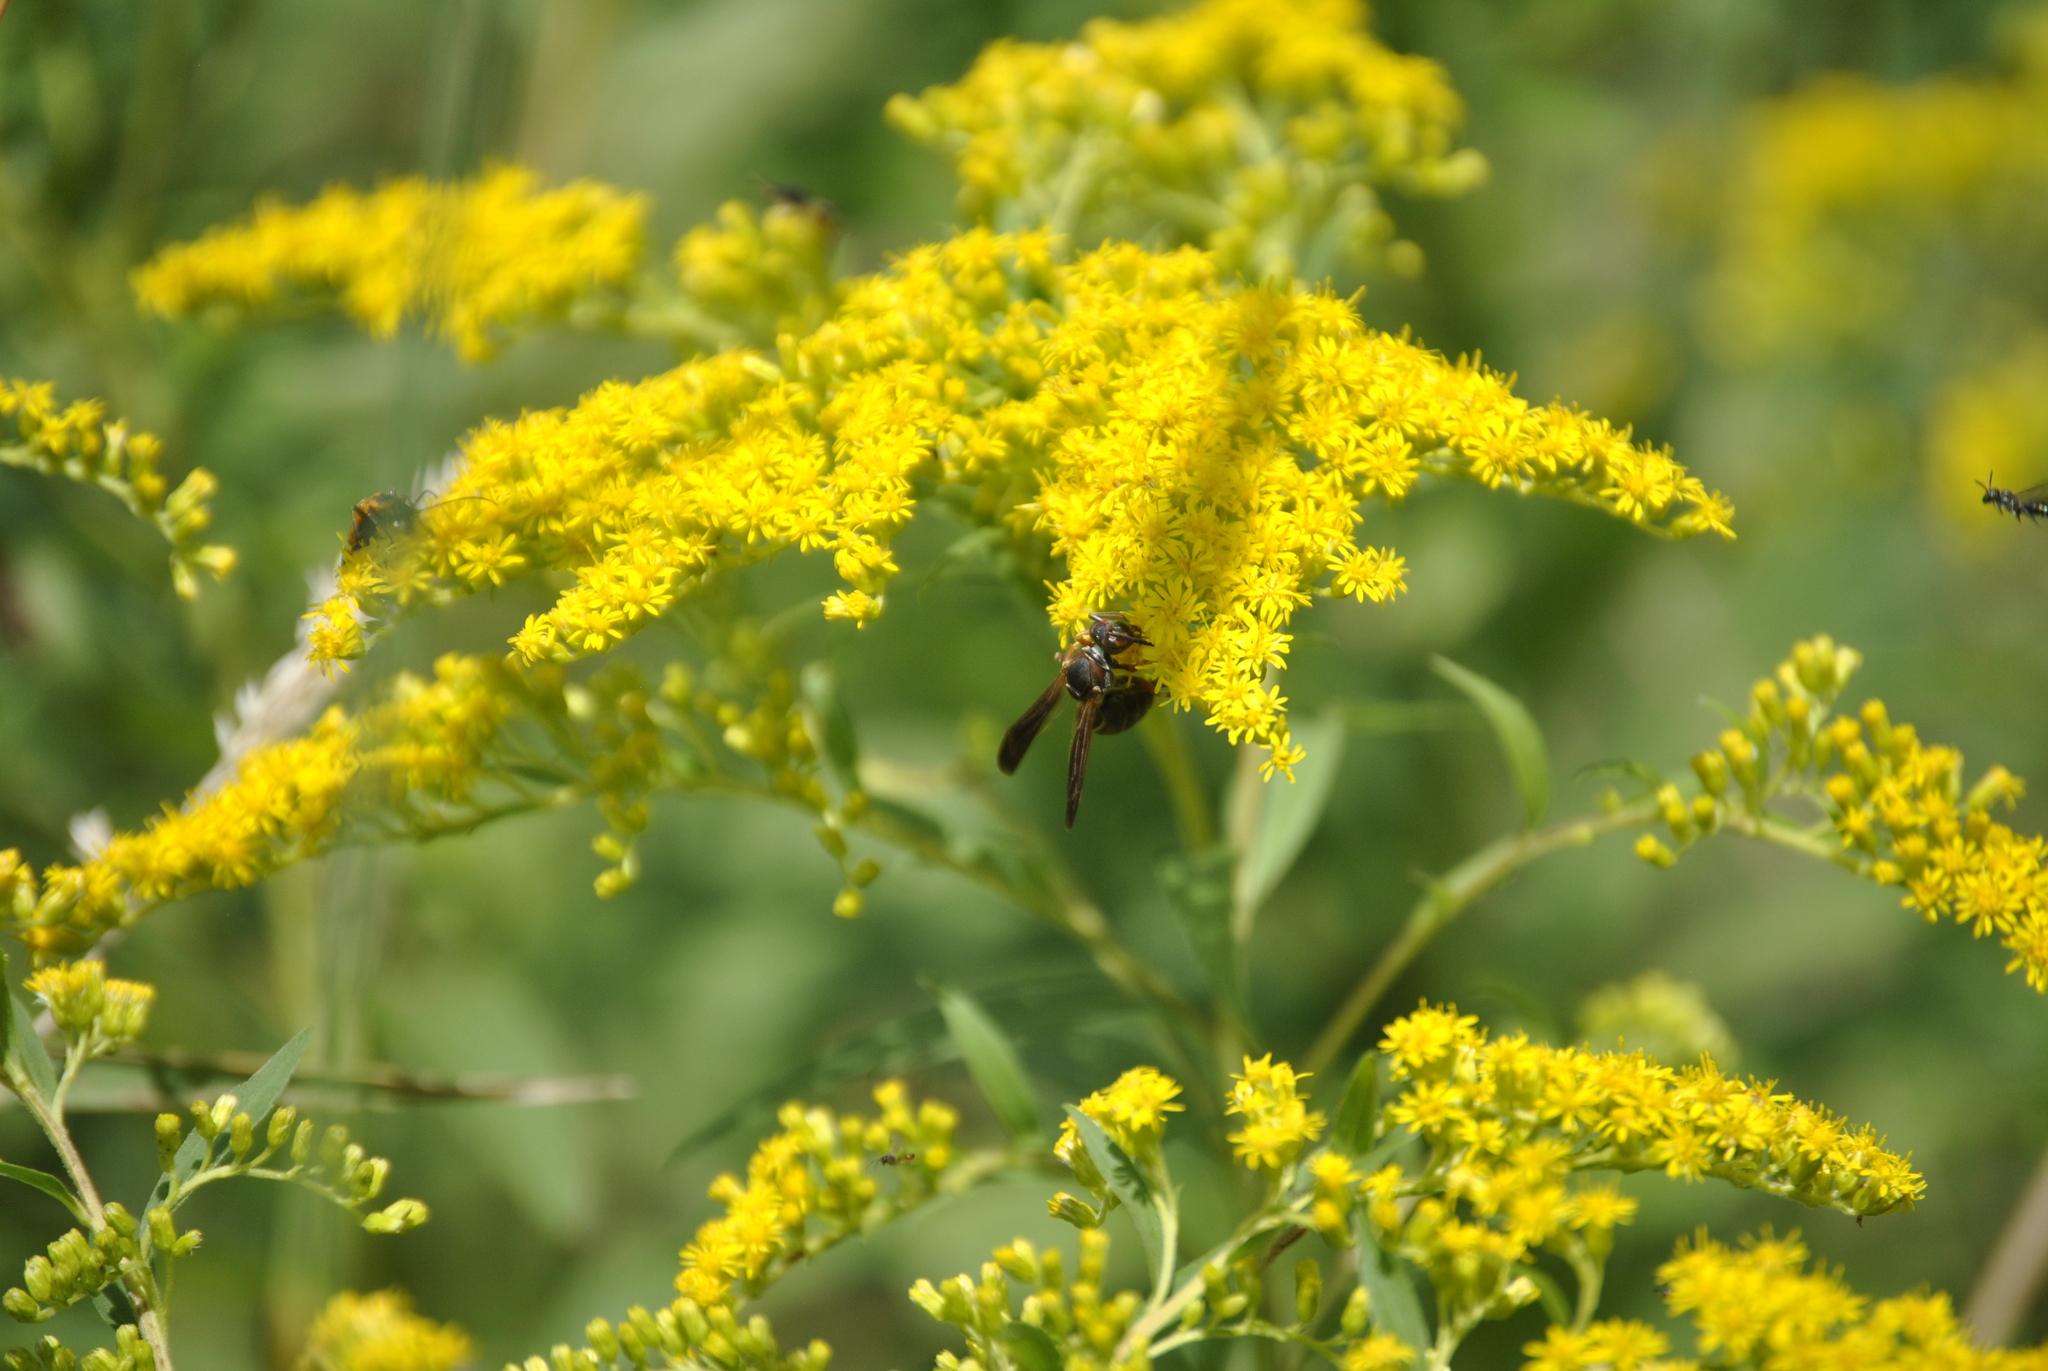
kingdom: Animalia
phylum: Arthropoda
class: Insecta
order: Hymenoptera
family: Eumenidae
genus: Polistes
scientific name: Polistes fuscatus
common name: Dark paper wasp
